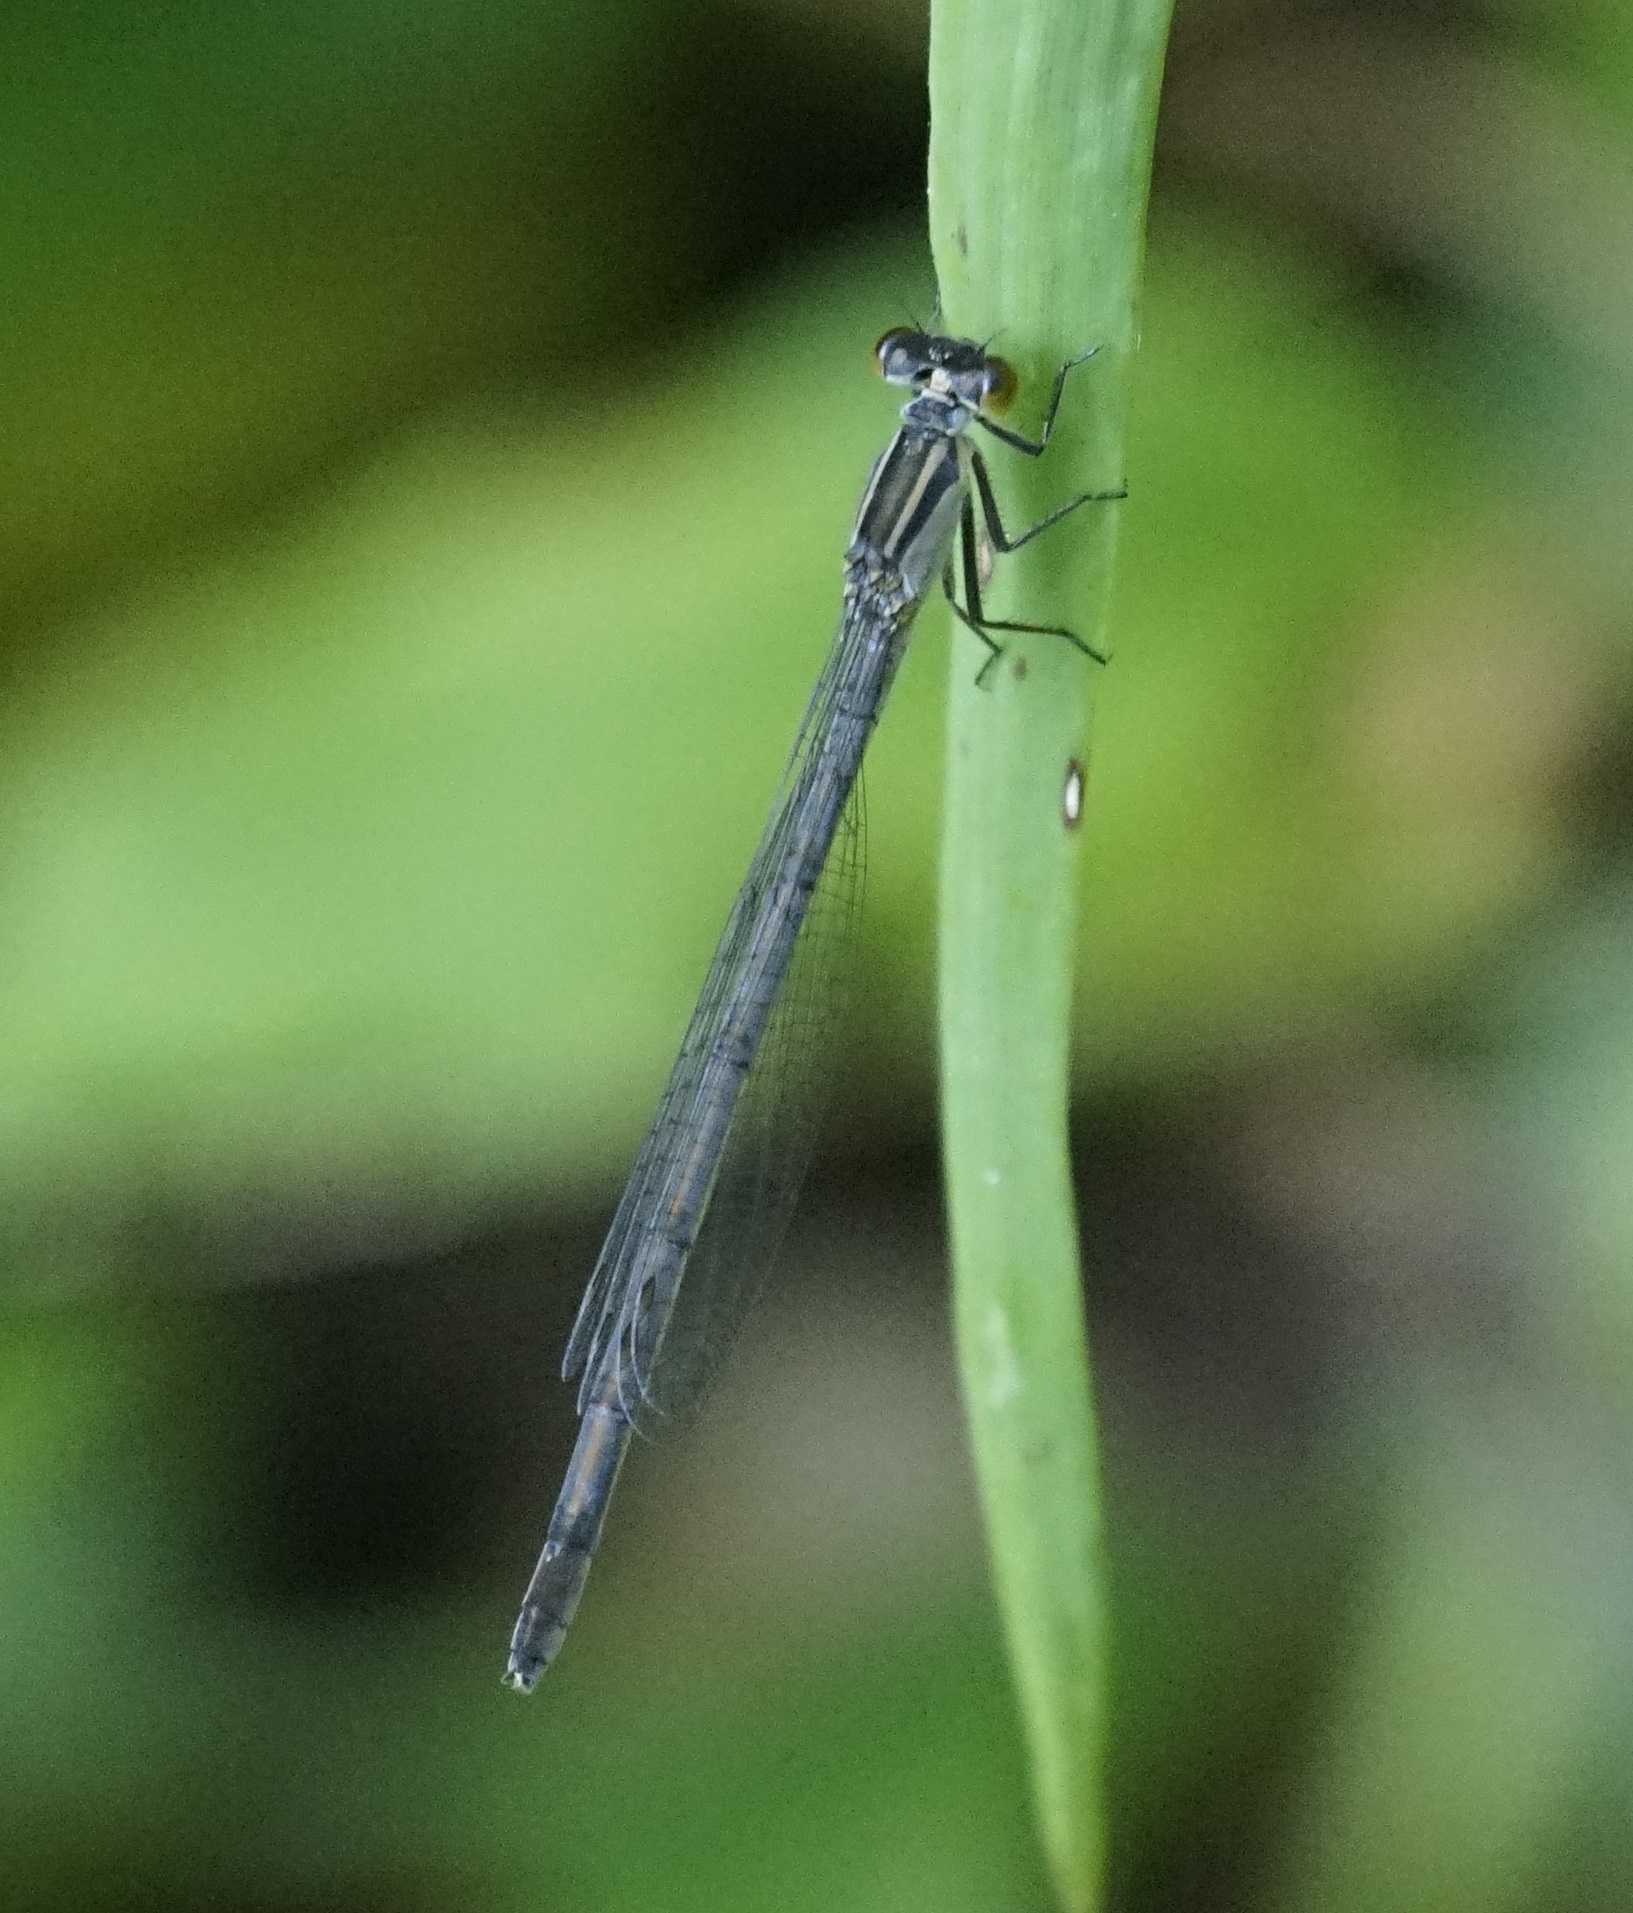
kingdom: Animalia
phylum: Arthropoda
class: Insecta
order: Odonata
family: Coenagrionidae
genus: Ischnura
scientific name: Ischnura heterosticta
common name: Common bluetail
